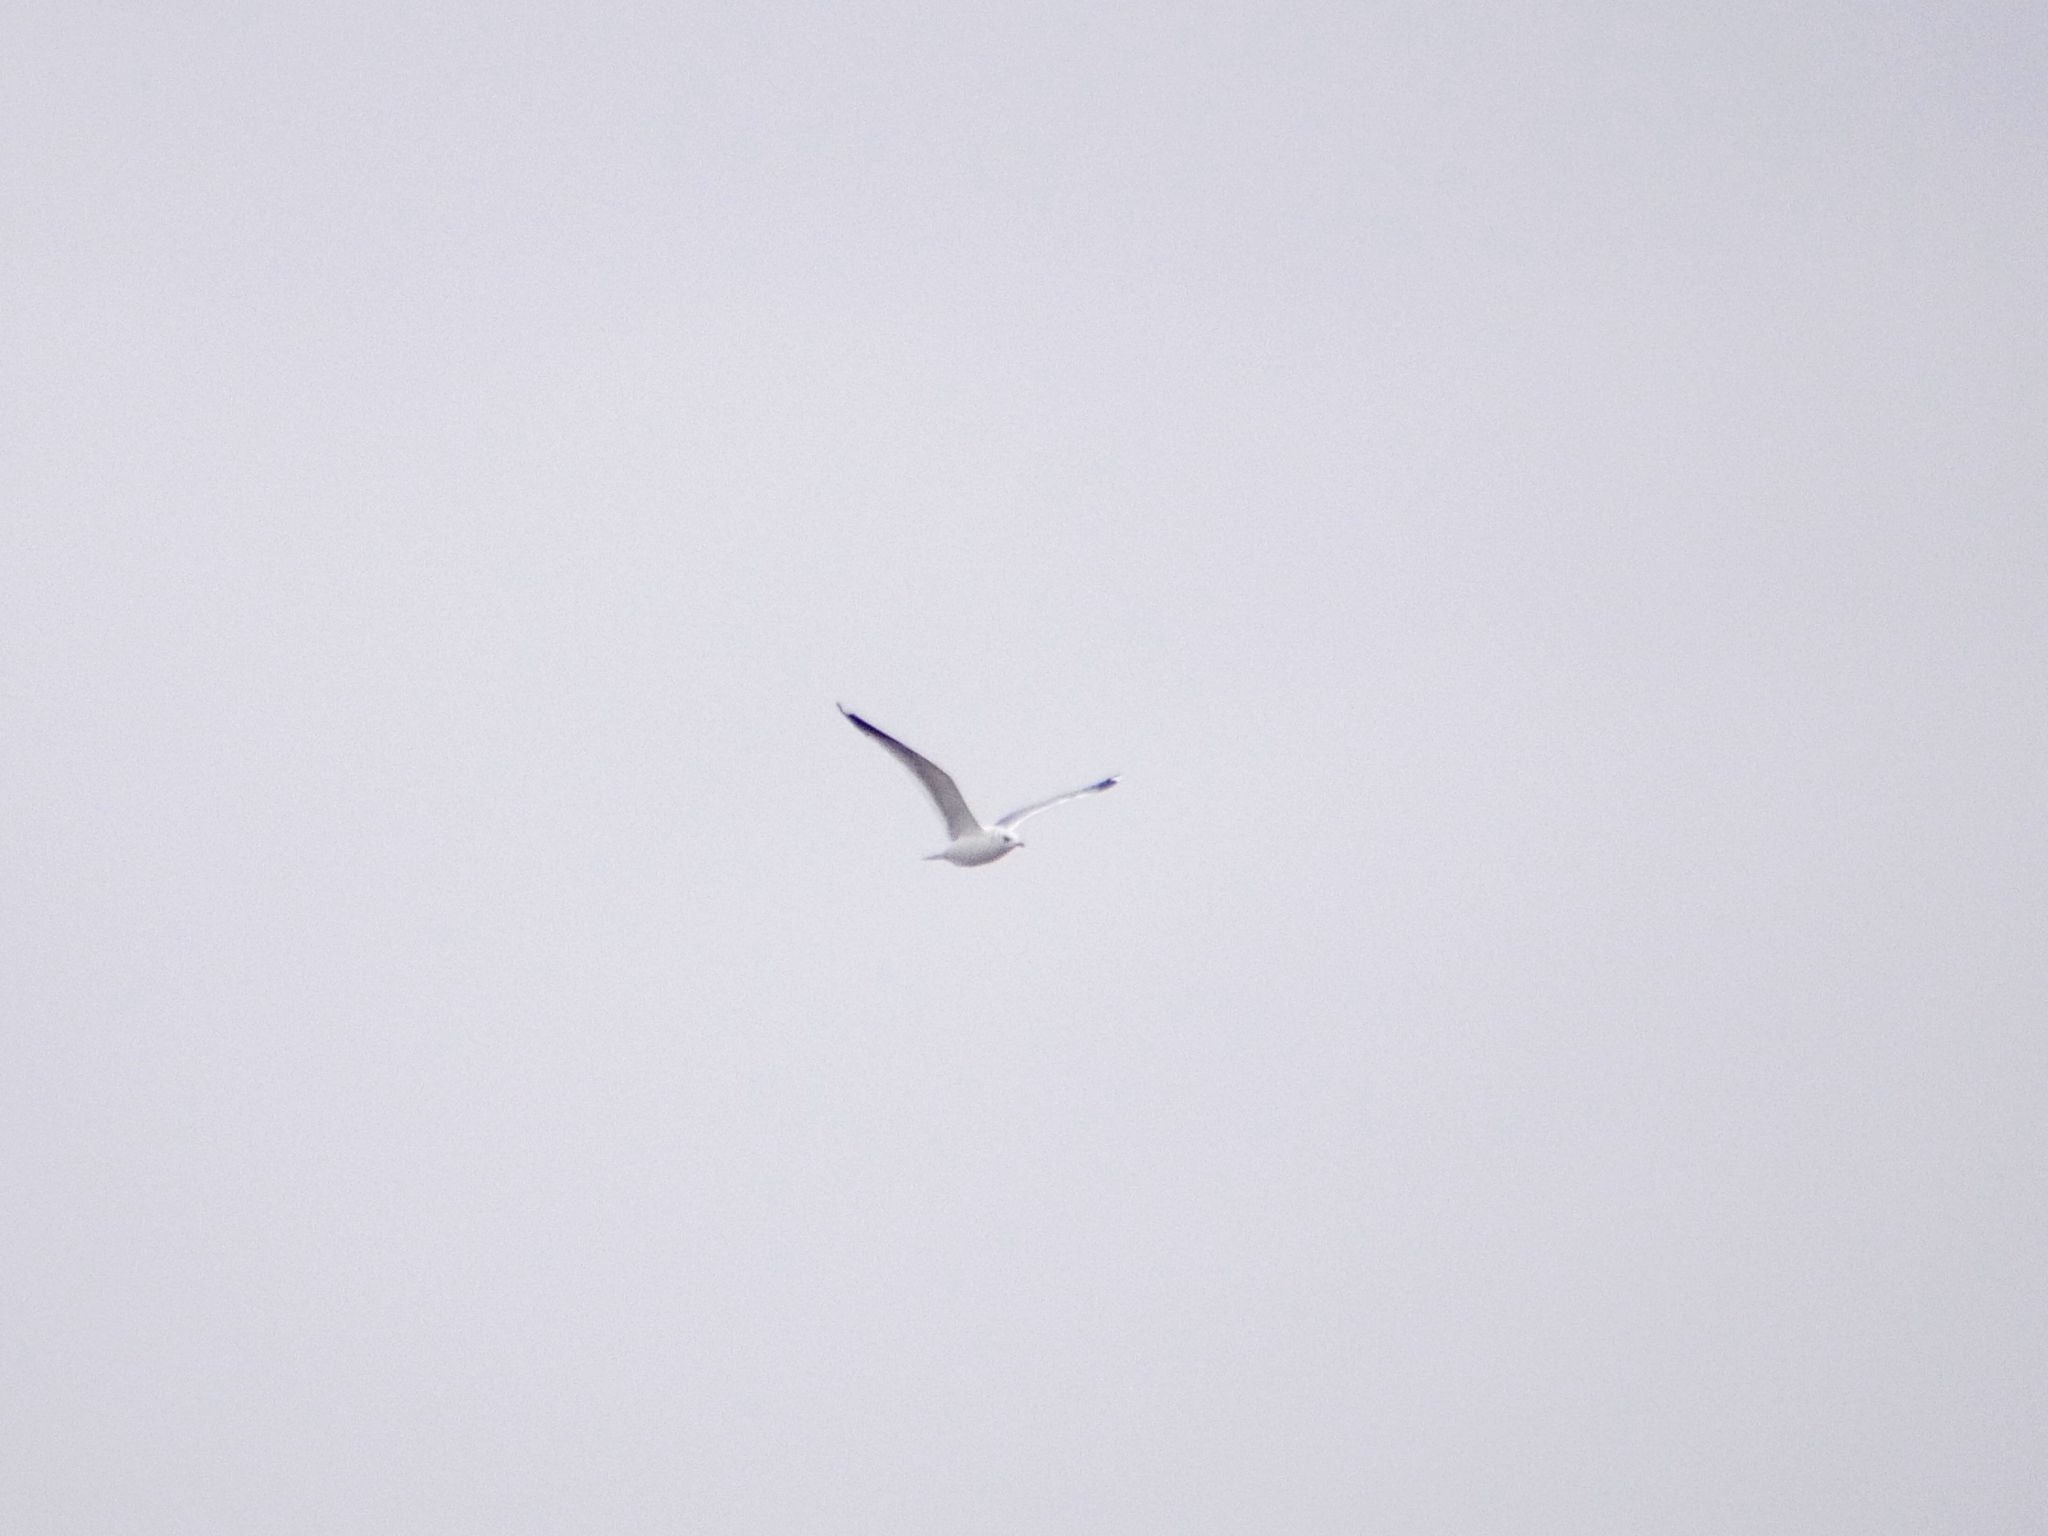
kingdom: Animalia
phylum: Chordata
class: Aves
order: Charadriiformes
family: Laridae
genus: Larus
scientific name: Larus canus
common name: Mew gull
